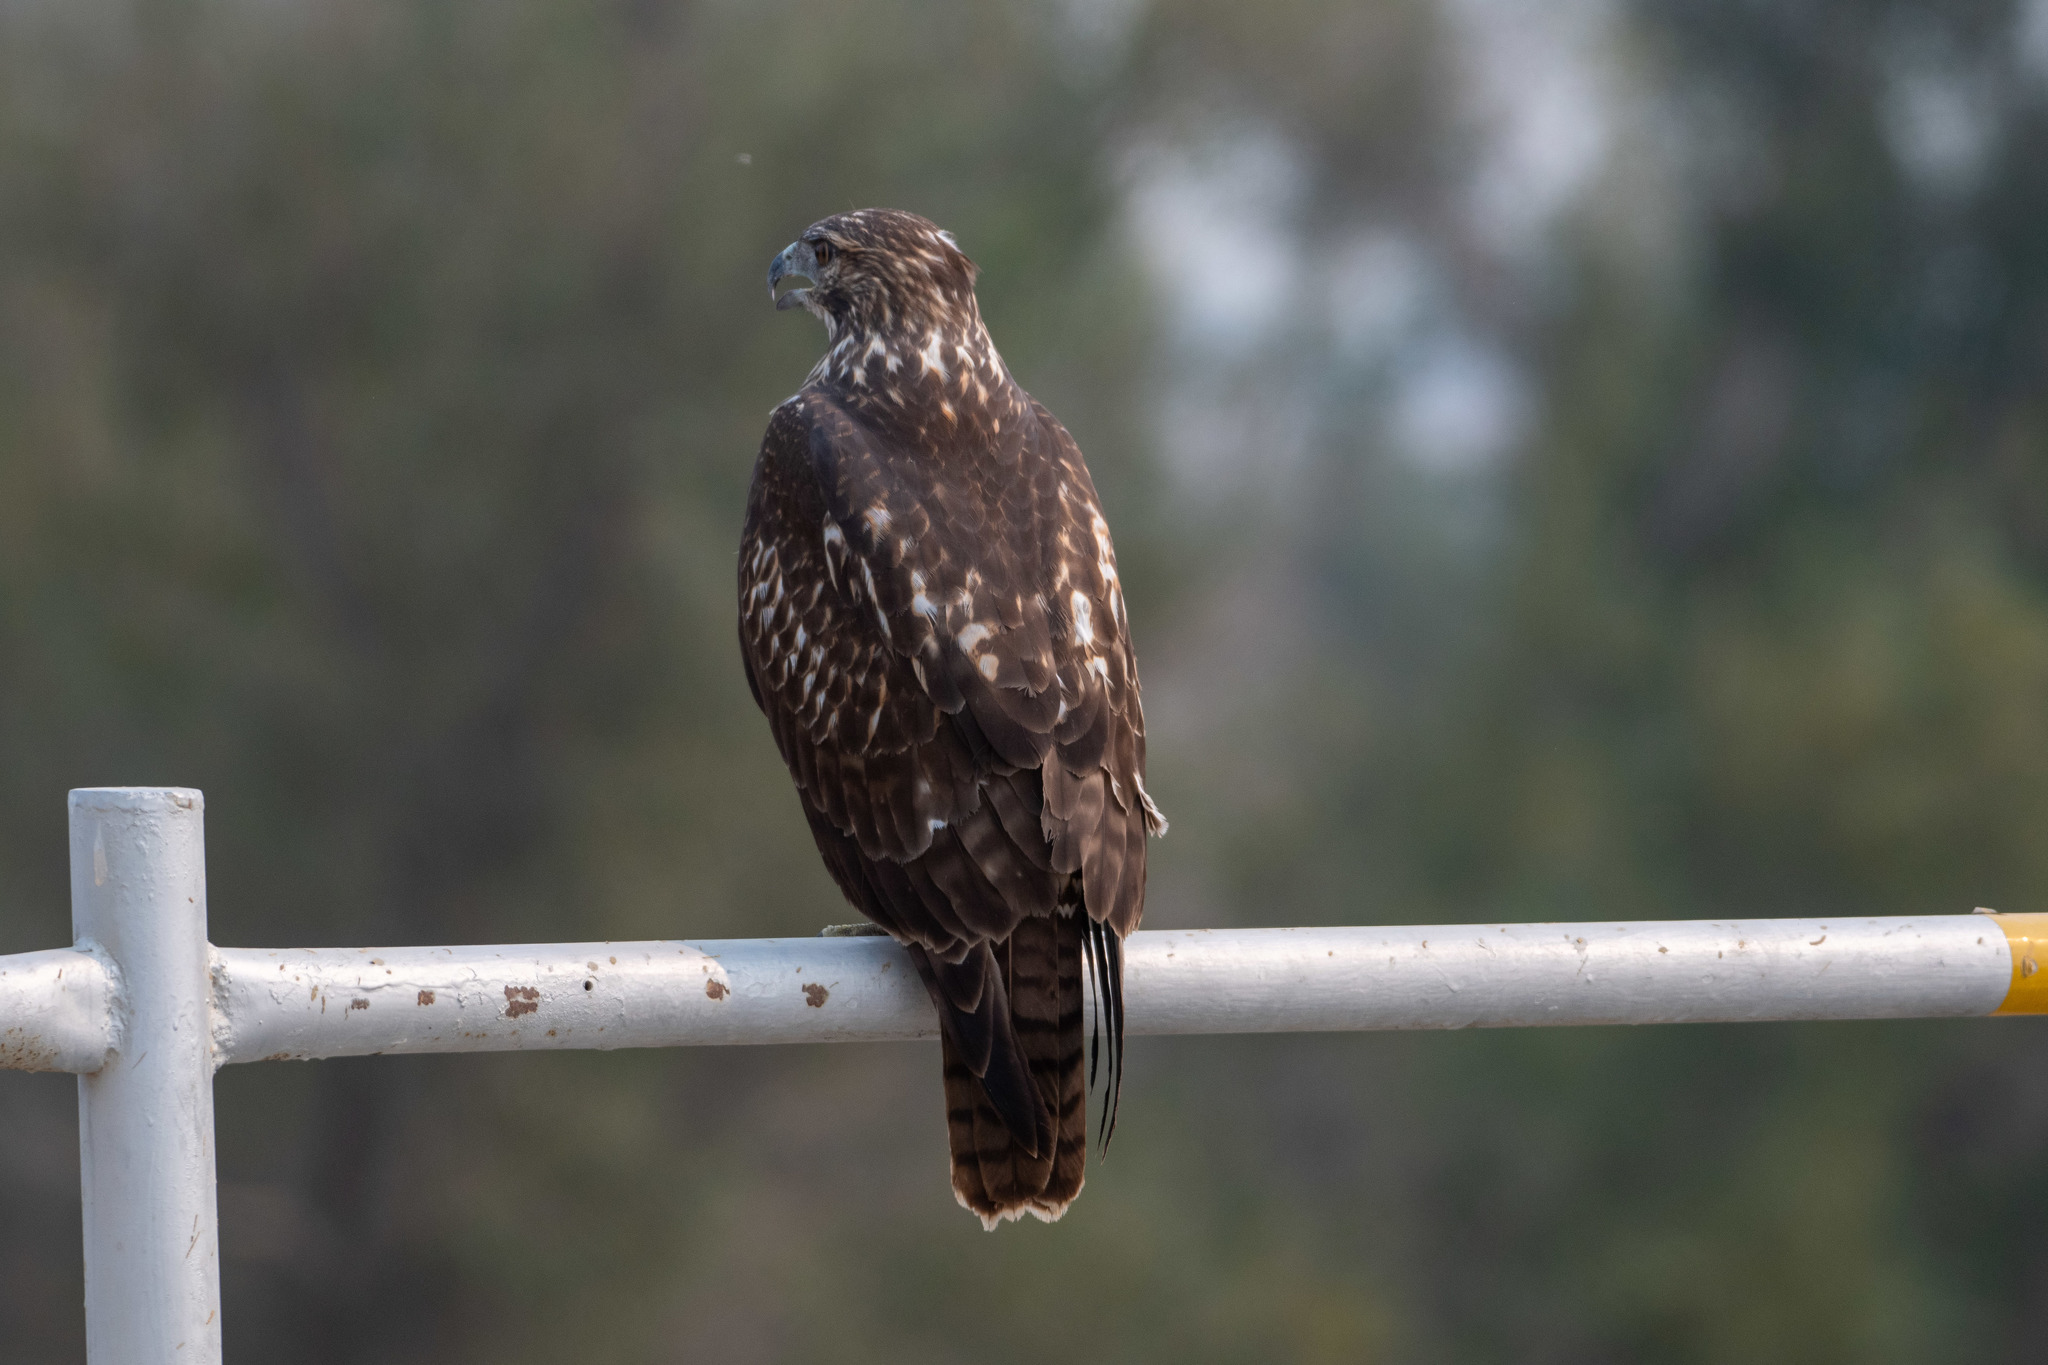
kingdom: Animalia
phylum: Chordata
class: Aves
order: Accipitriformes
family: Accipitridae
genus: Buteo
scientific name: Buteo jamaicensis
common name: Red-tailed hawk
